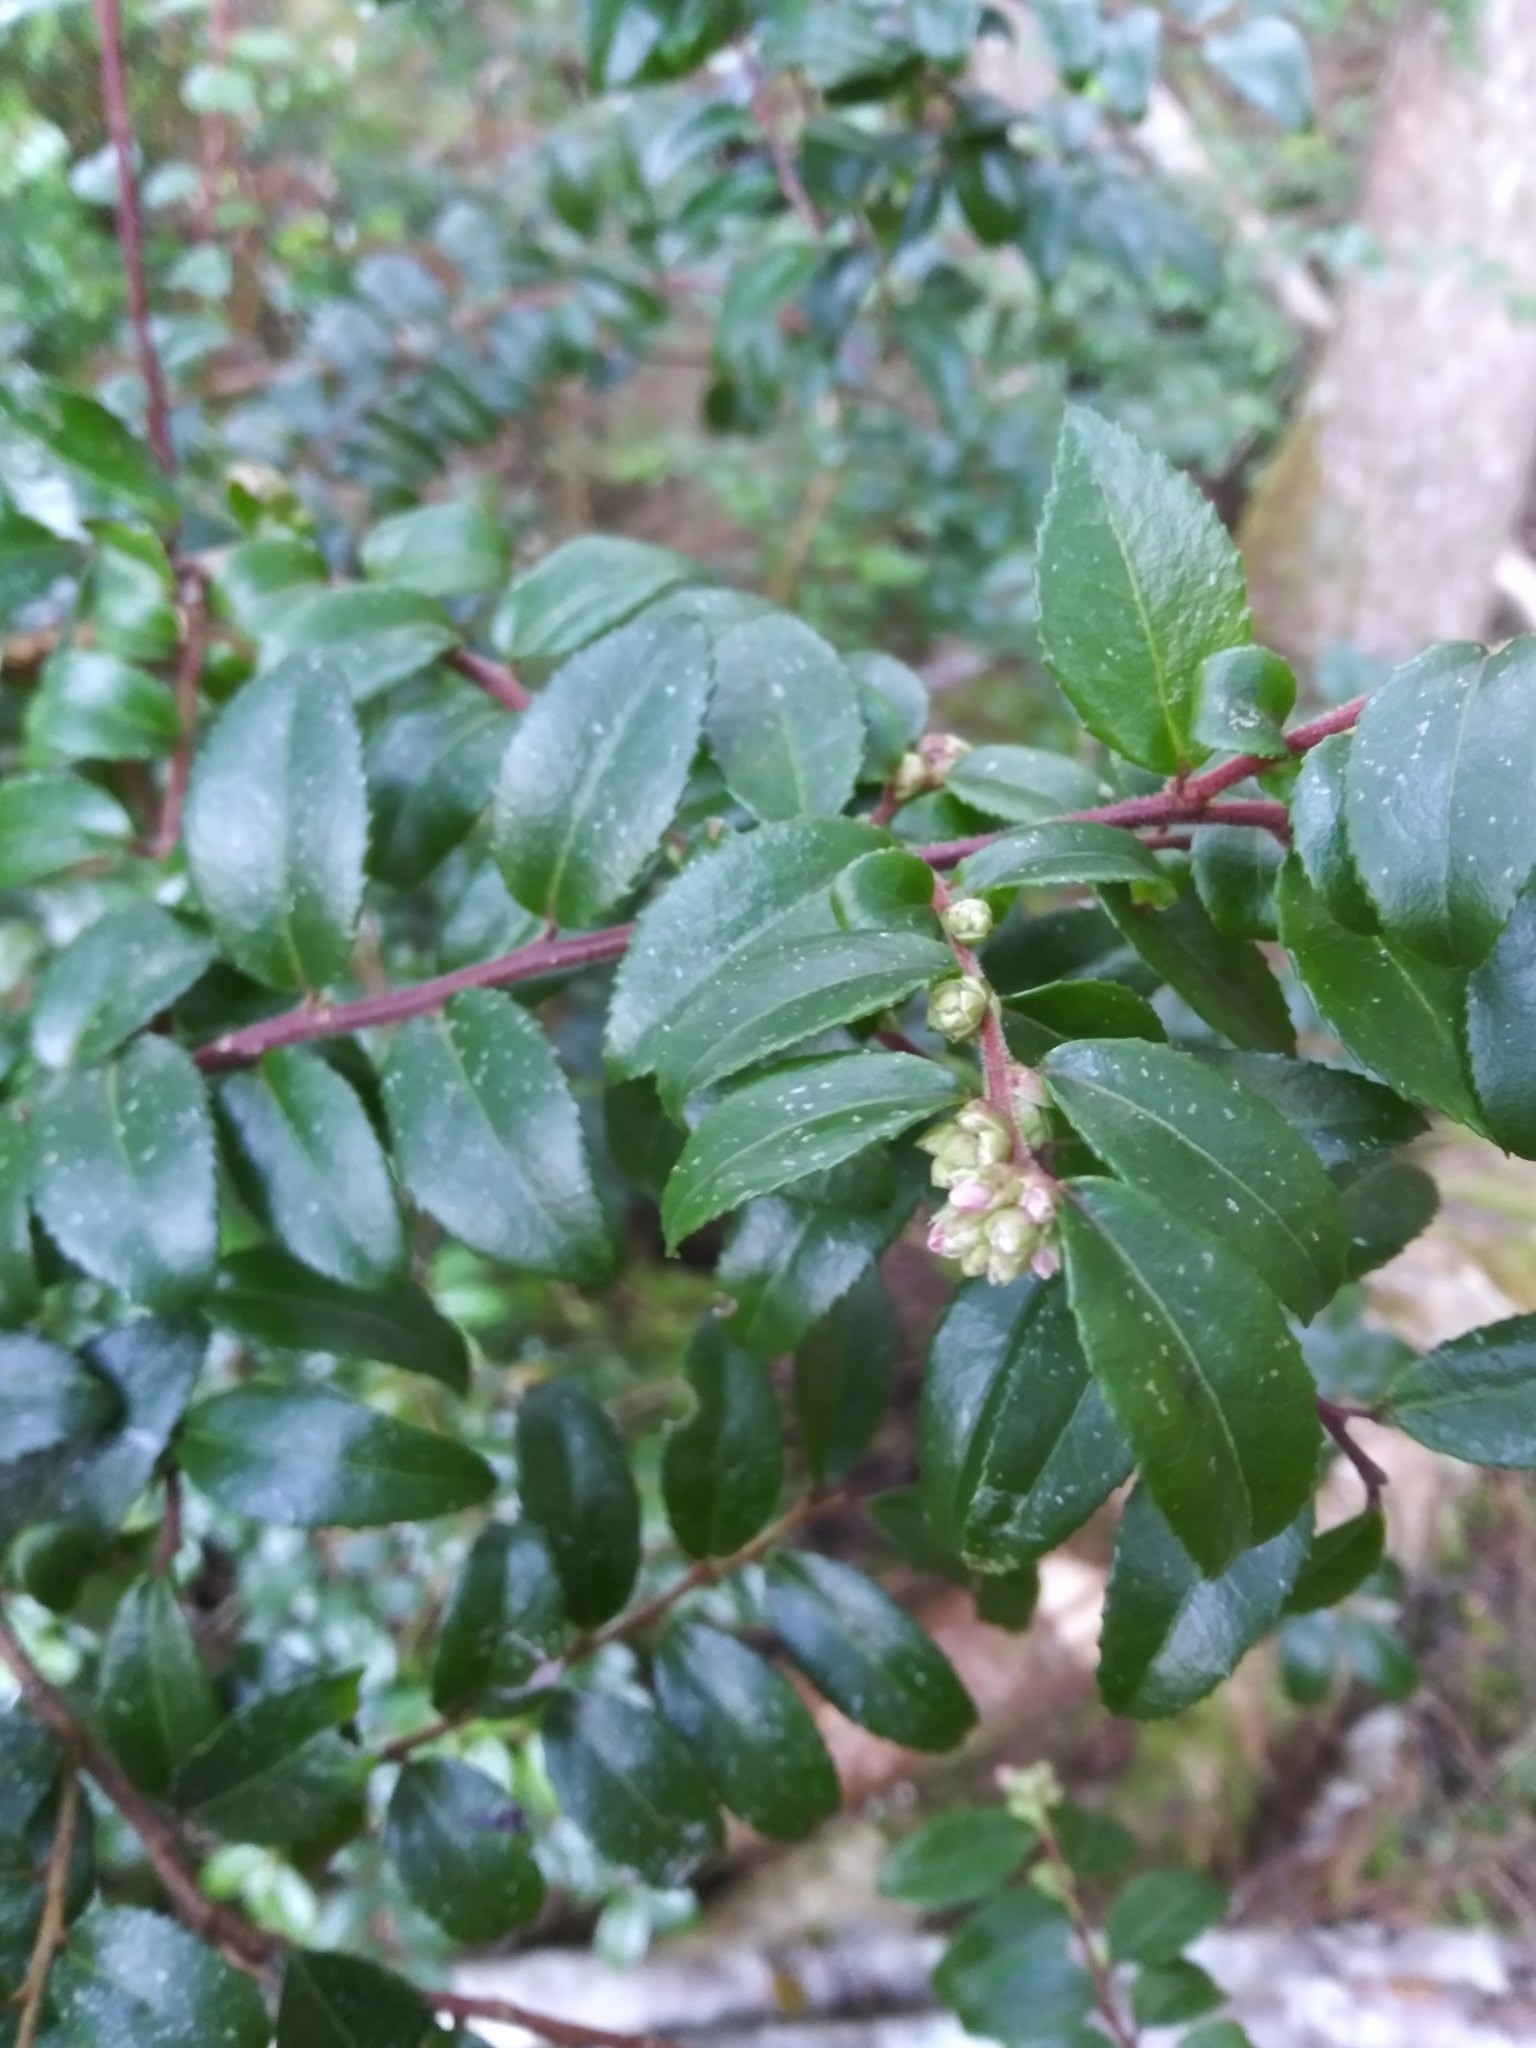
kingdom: Plantae
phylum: Tracheophyta
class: Magnoliopsida
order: Ericales
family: Ericaceae
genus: Vaccinium
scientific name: Vaccinium ovatum
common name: California-huckleberry
